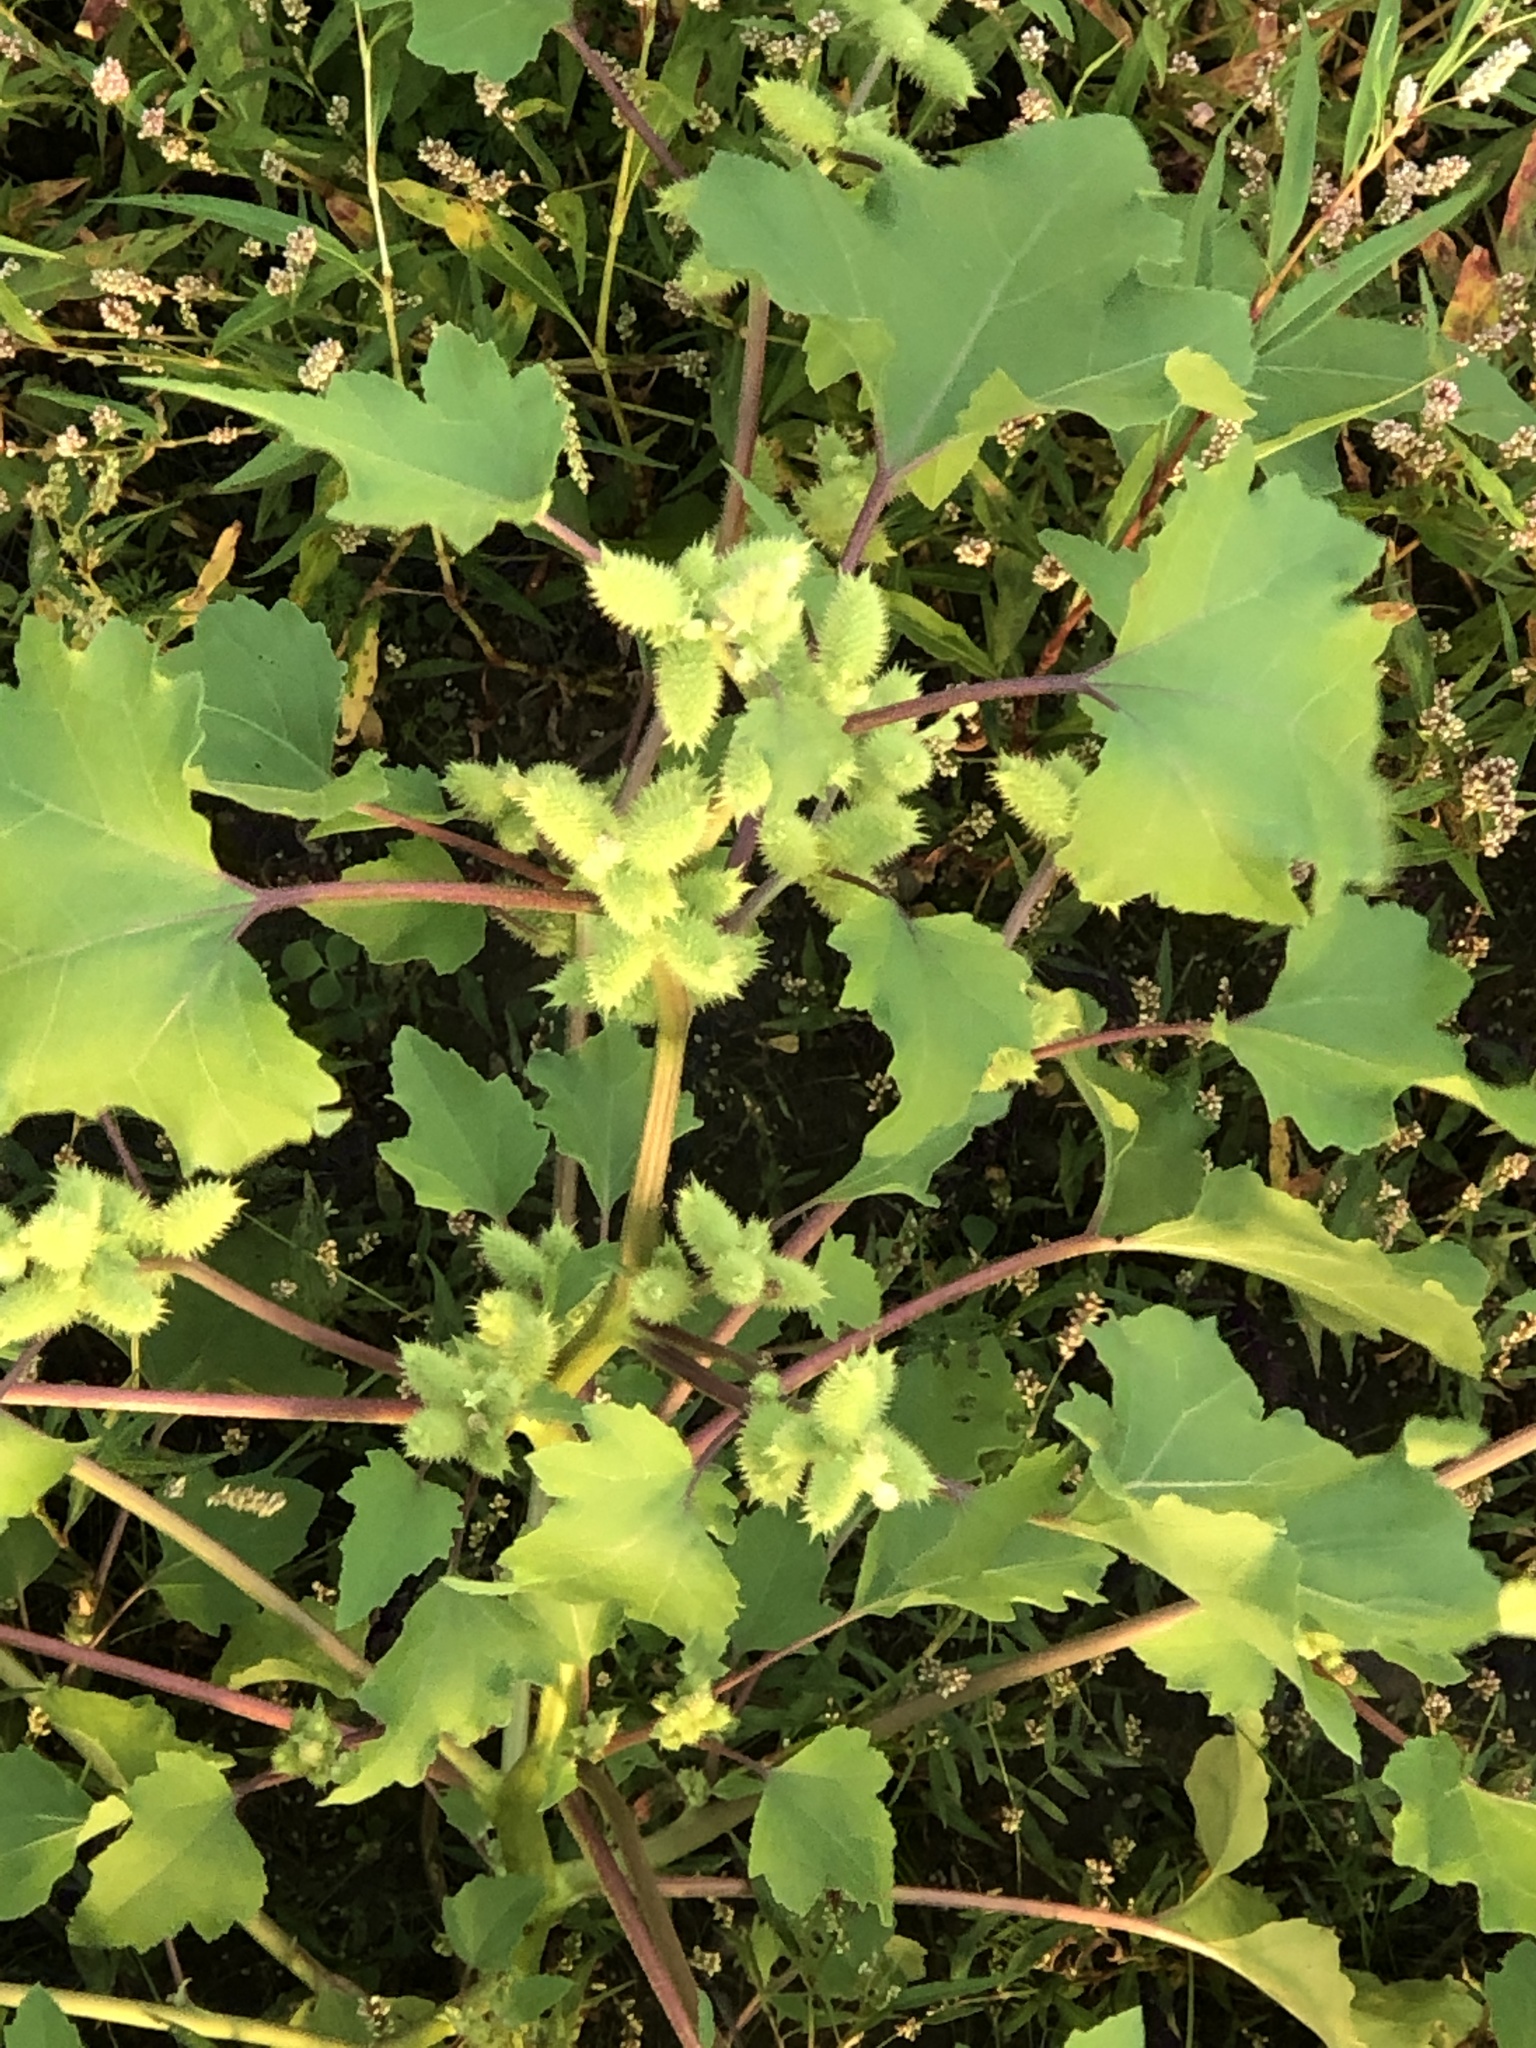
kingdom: Plantae
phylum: Tracheophyta
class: Magnoliopsida
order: Asterales
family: Asteraceae
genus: Xanthium
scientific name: Xanthium strumarium
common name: Rough cocklebur
